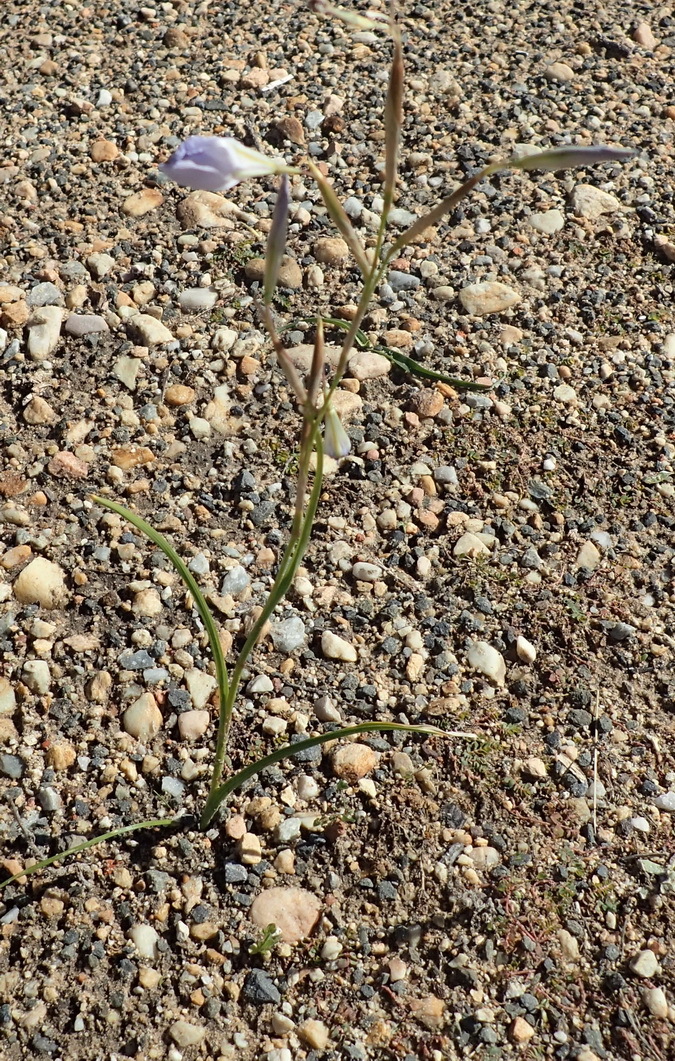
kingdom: Plantae
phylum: Tracheophyta
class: Liliopsida
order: Asparagales
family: Iridaceae
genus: Moraea
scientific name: Moraea polyanthos
